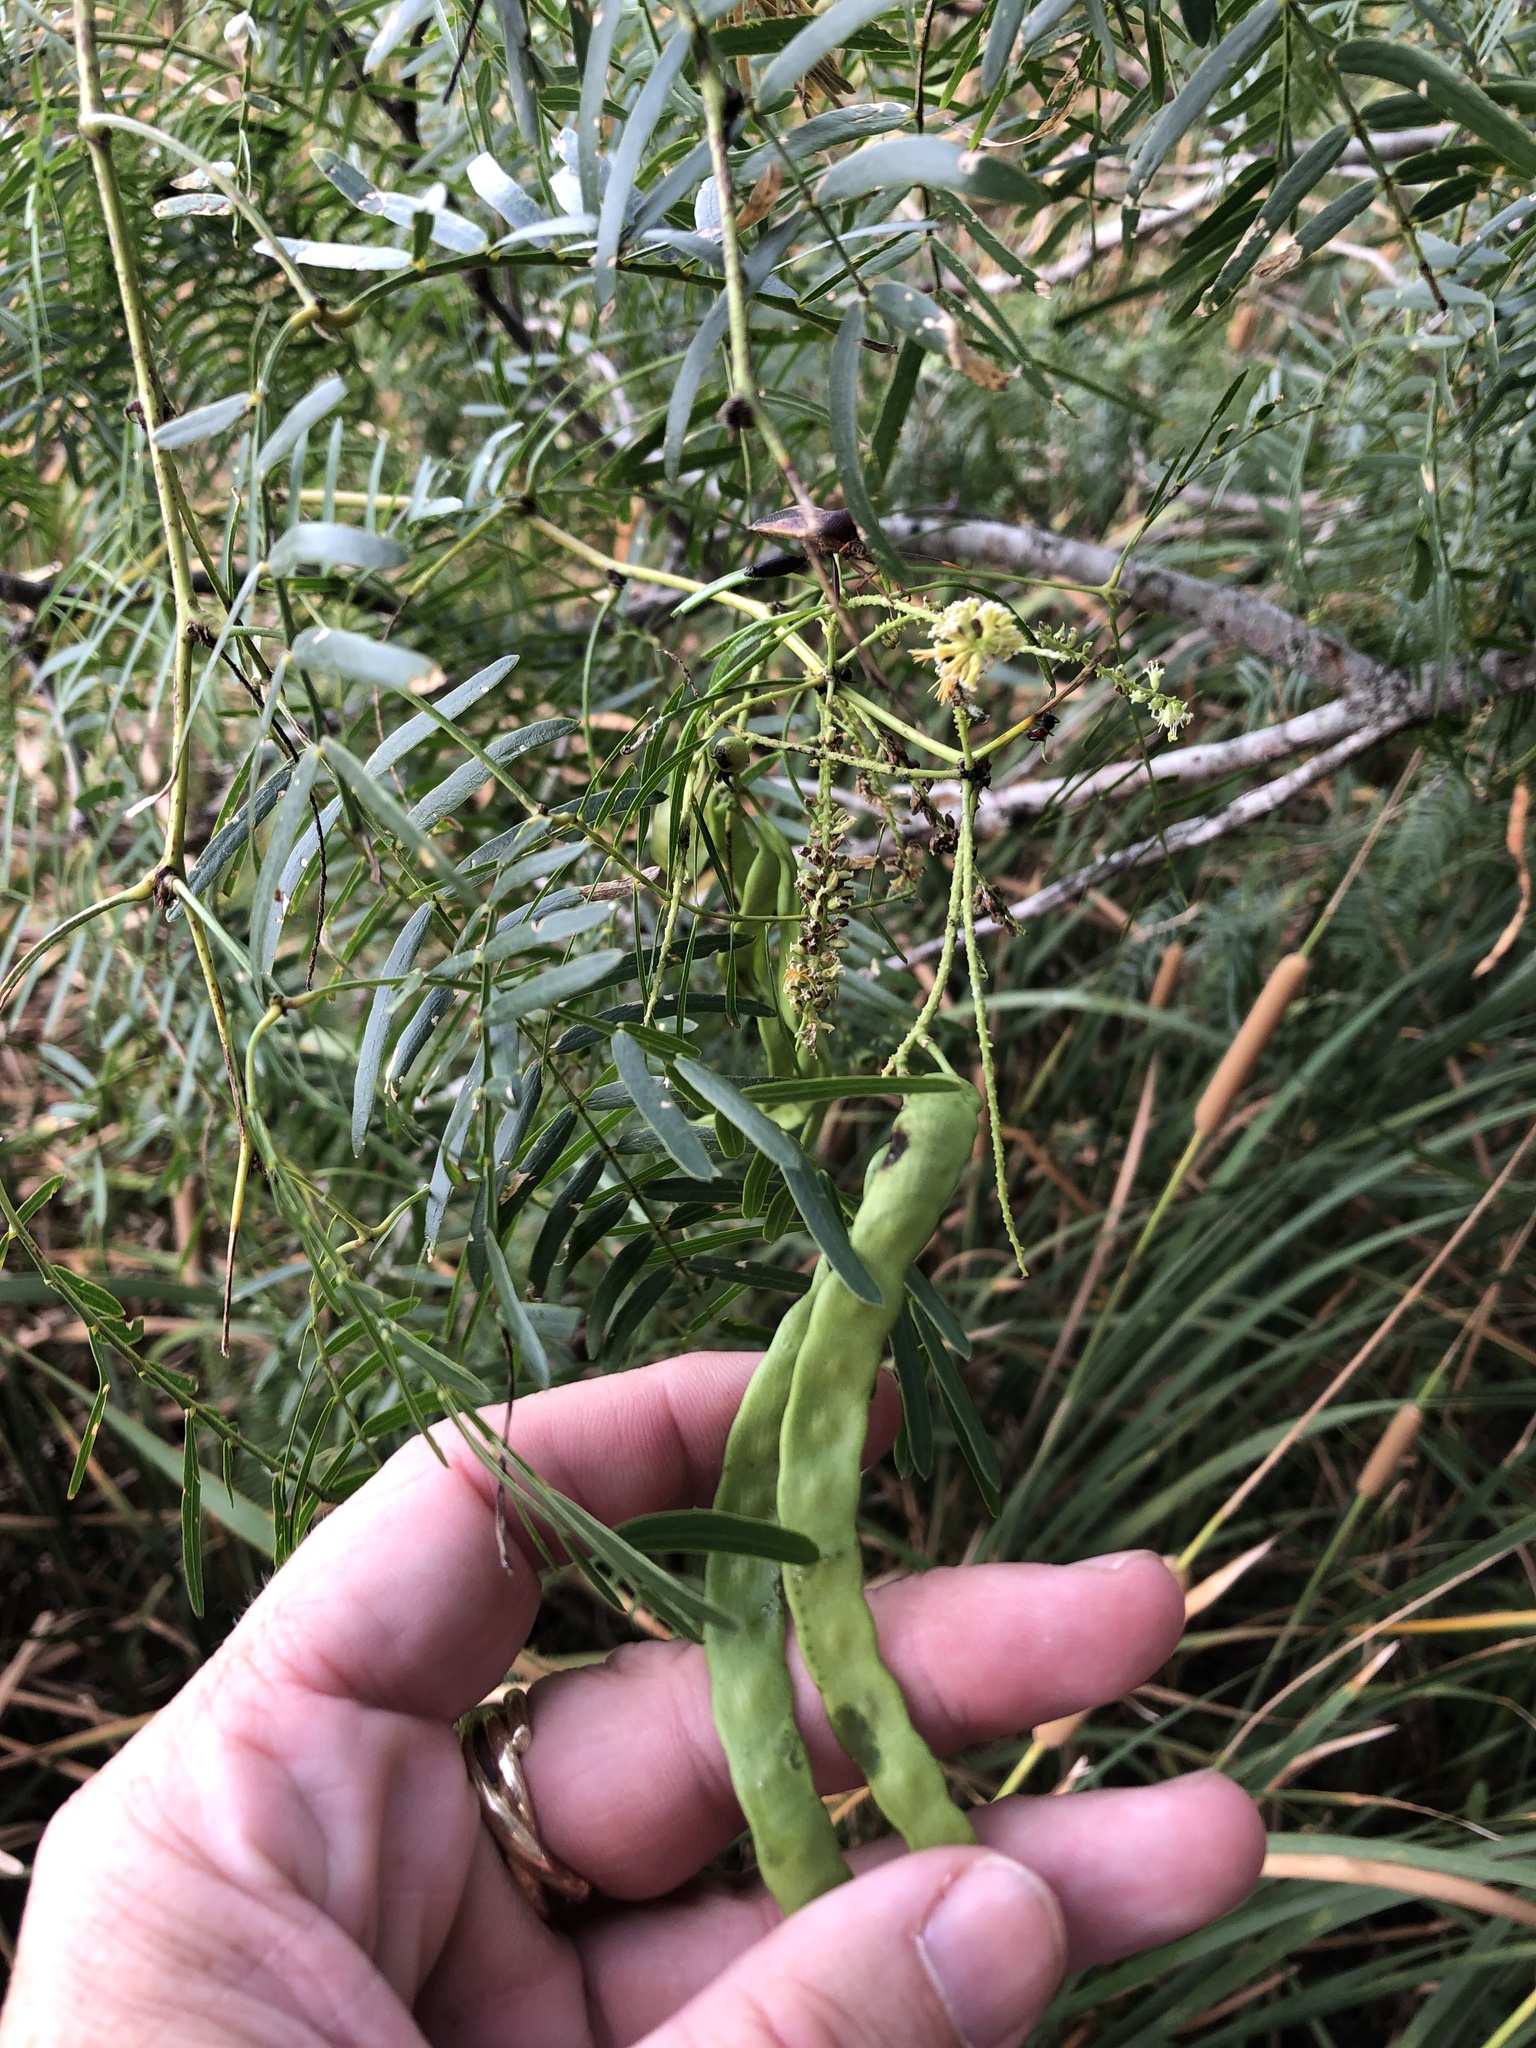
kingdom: Plantae
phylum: Tracheophyta
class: Magnoliopsida
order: Fabales
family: Fabaceae
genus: Prosopis
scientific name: Prosopis glandulosa
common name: Honey mesquite
